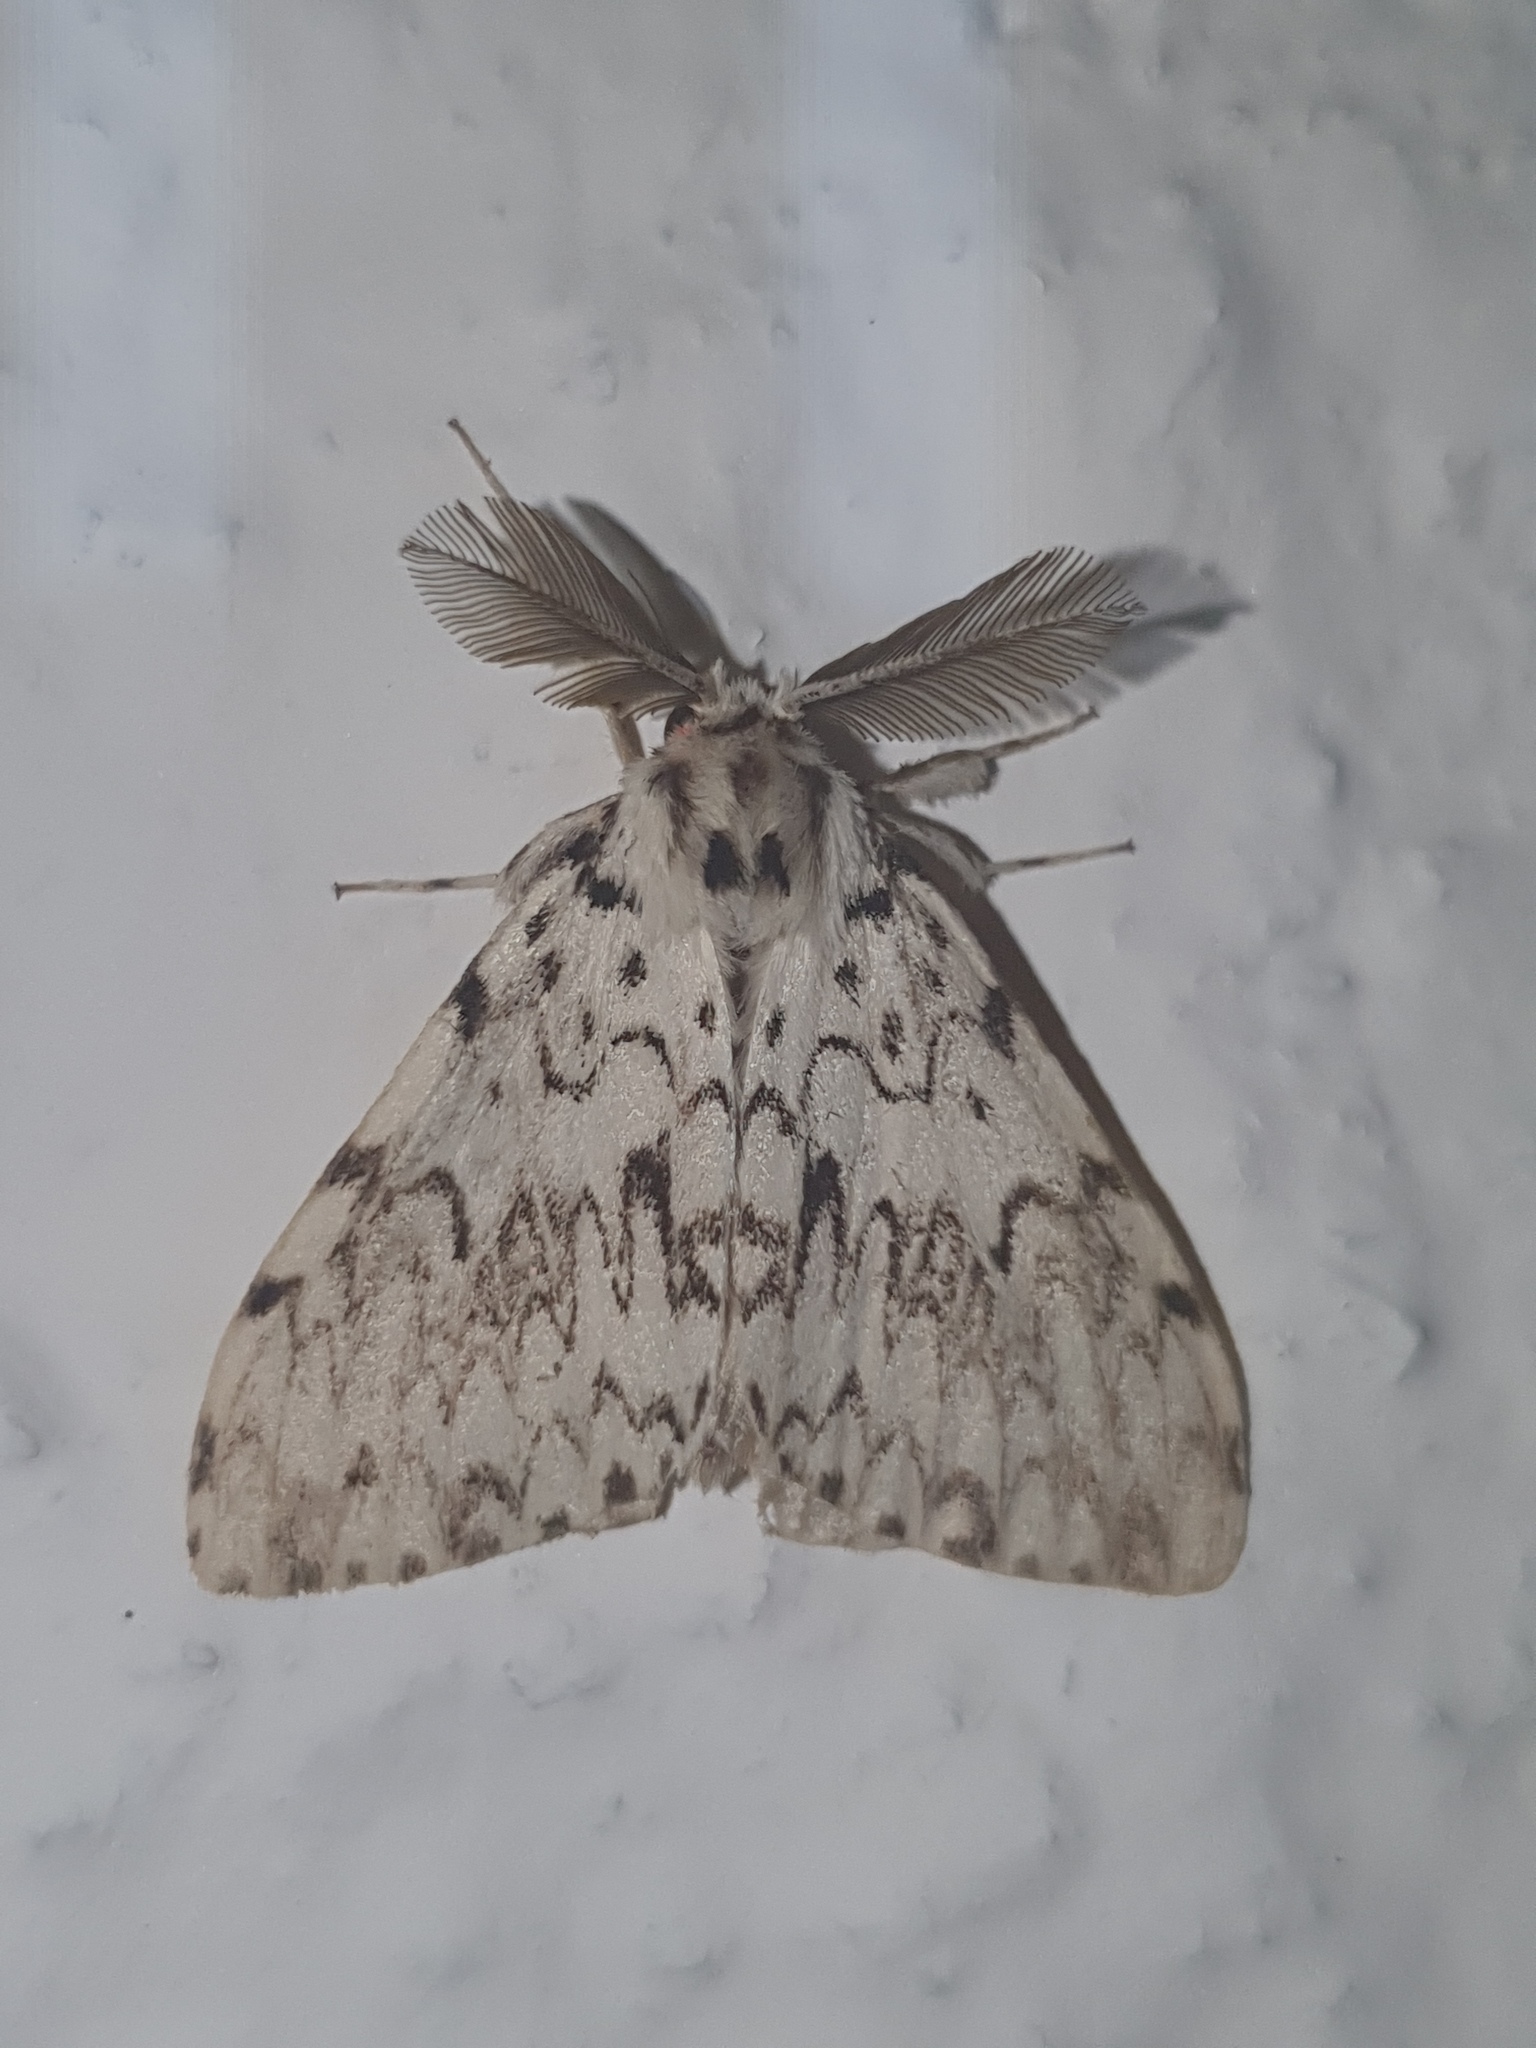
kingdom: Animalia
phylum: Arthropoda
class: Insecta
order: Lepidoptera
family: Erebidae
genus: Lymantria
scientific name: Lymantria monacha
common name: Black arches
